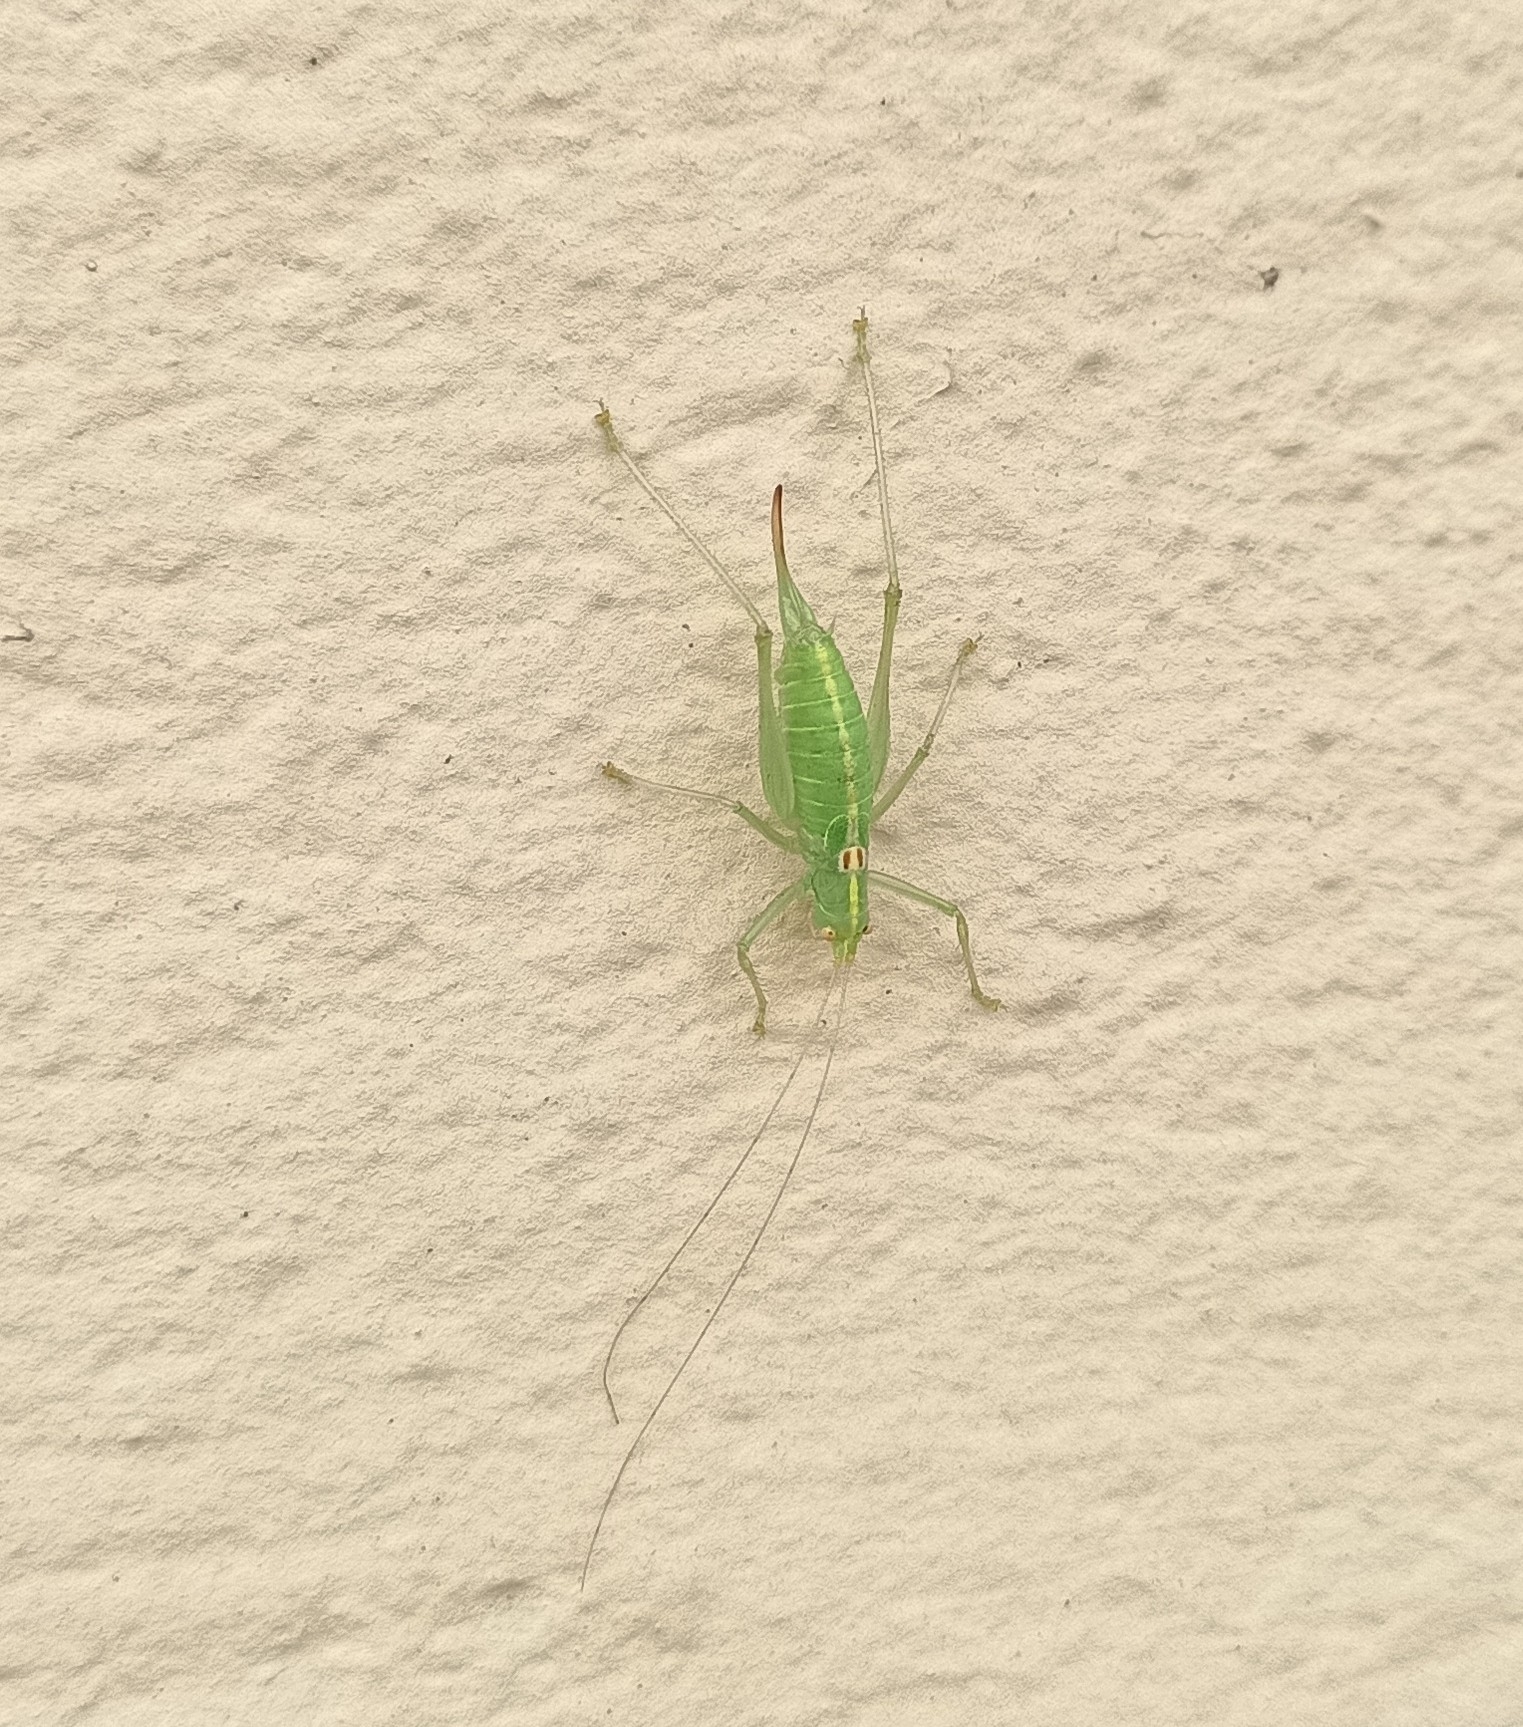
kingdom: Animalia
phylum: Arthropoda
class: Insecta
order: Orthoptera
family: Tettigoniidae
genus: Meconema
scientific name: Meconema meridionale
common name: Southern oak bush-cricket
